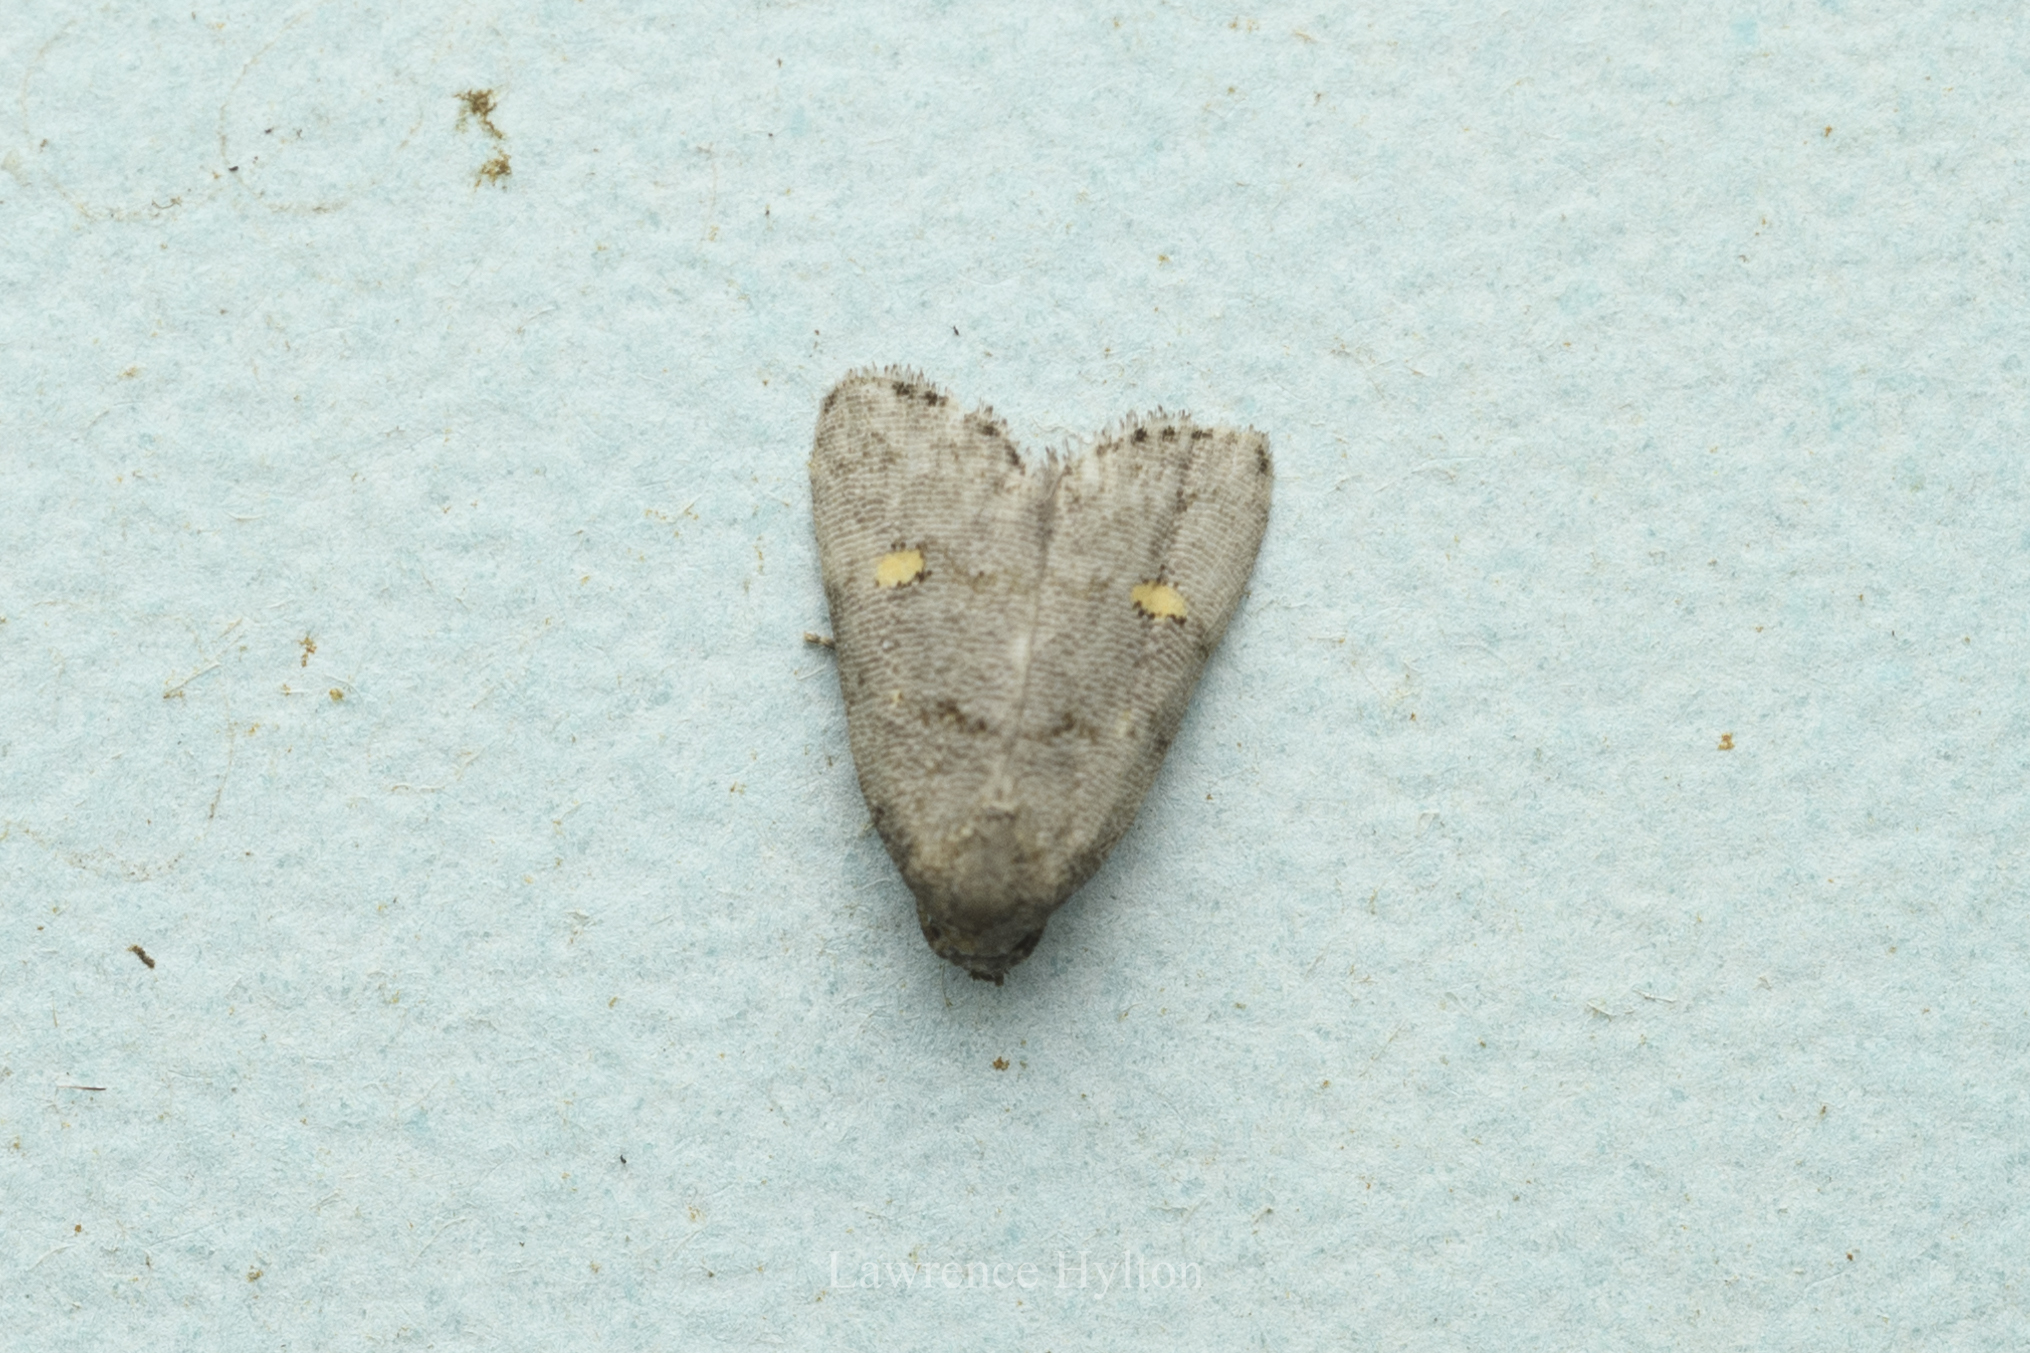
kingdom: Animalia
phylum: Arthropoda
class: Insecta
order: Lepidoptera
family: Erebidae
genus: Fustius
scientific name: Fustius sterlingi
